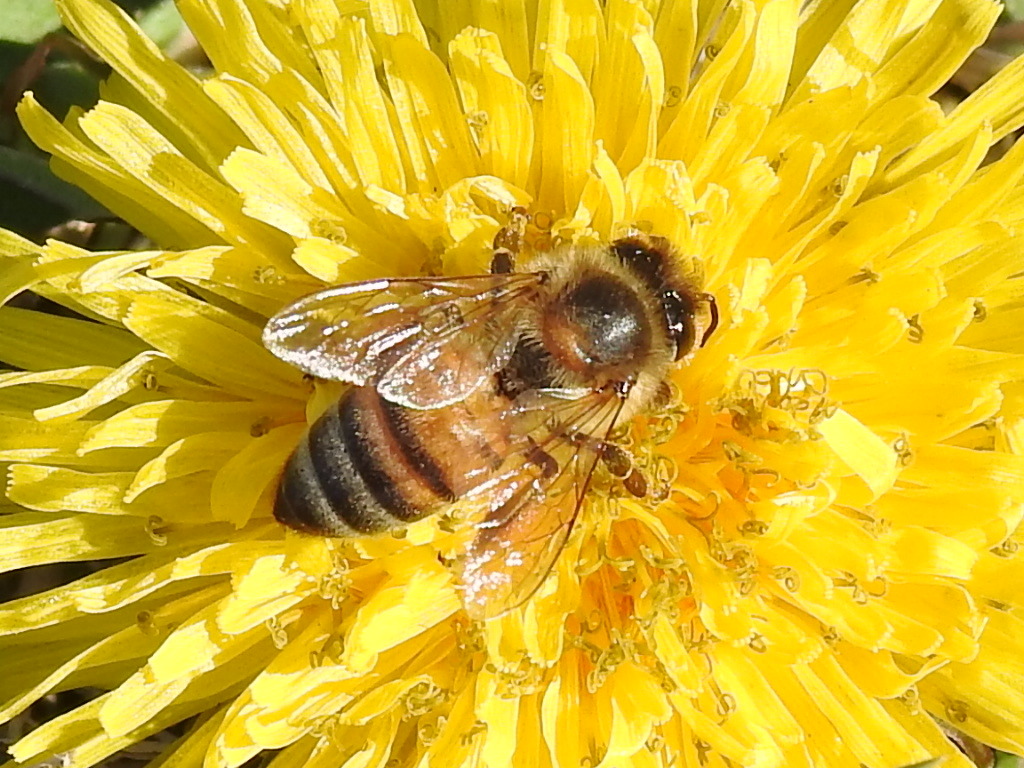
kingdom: Animalia
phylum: Arthropoda
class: Insecta
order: Hymenoptera
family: Apidae
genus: Apis
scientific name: Apis mellifera
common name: Honey bee
